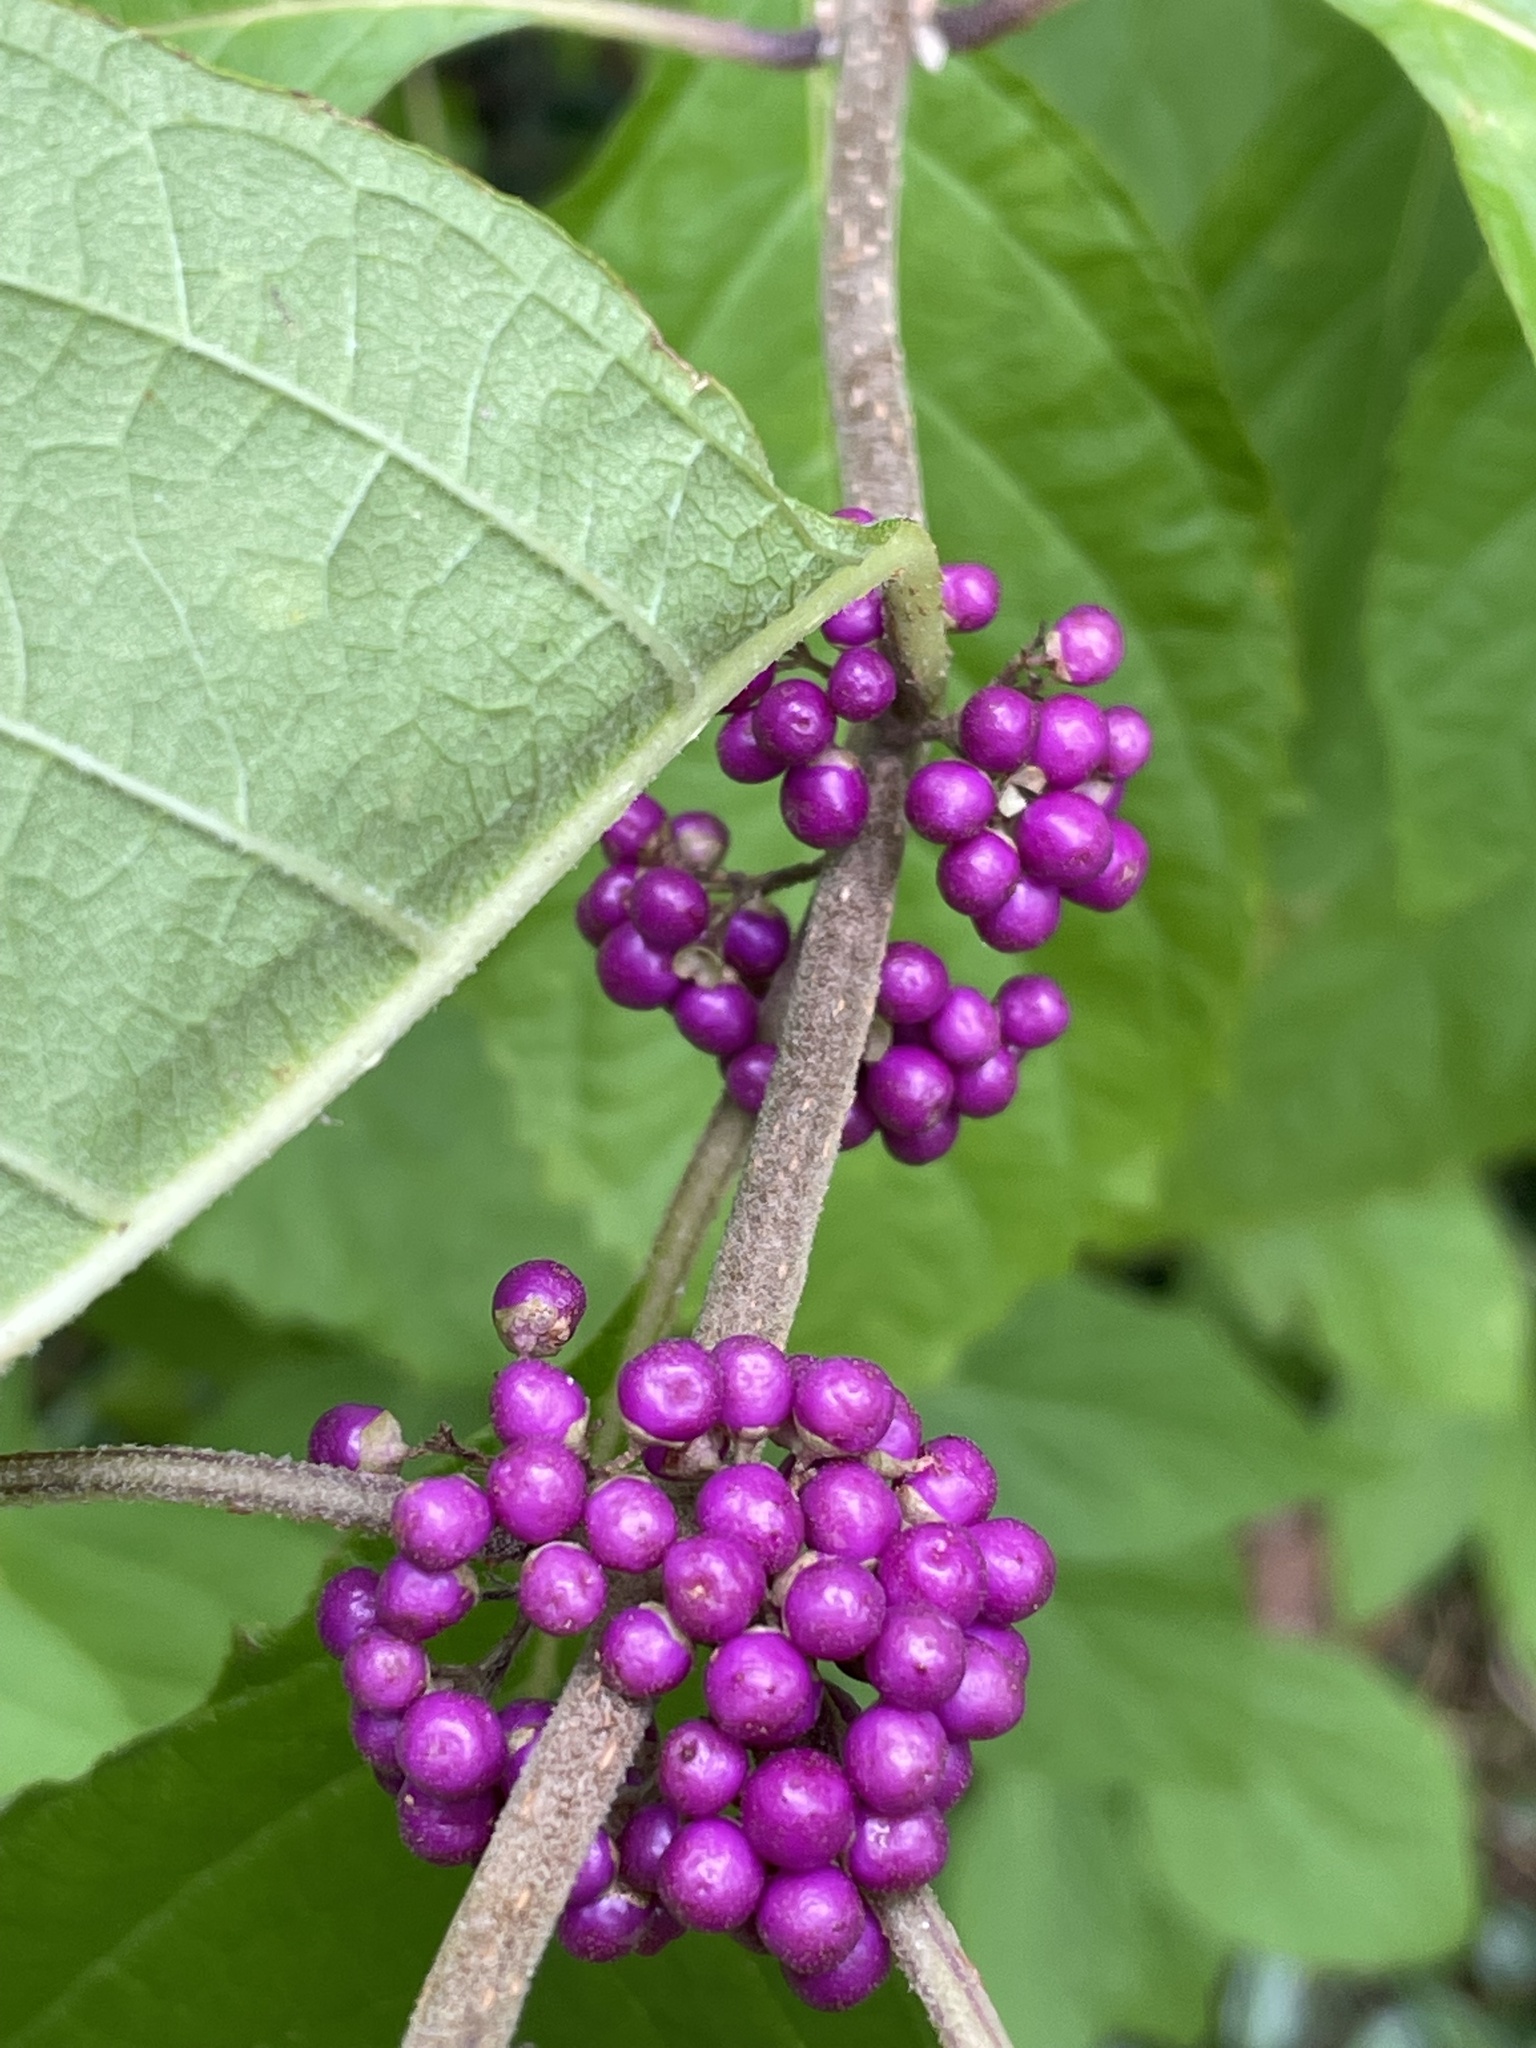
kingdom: Plantae
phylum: Tracheophyta
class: Magnoliopsida
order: Lamiales
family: Lamiaceae
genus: Callicarpa
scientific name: Callicarpa americana
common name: American beautyberry
